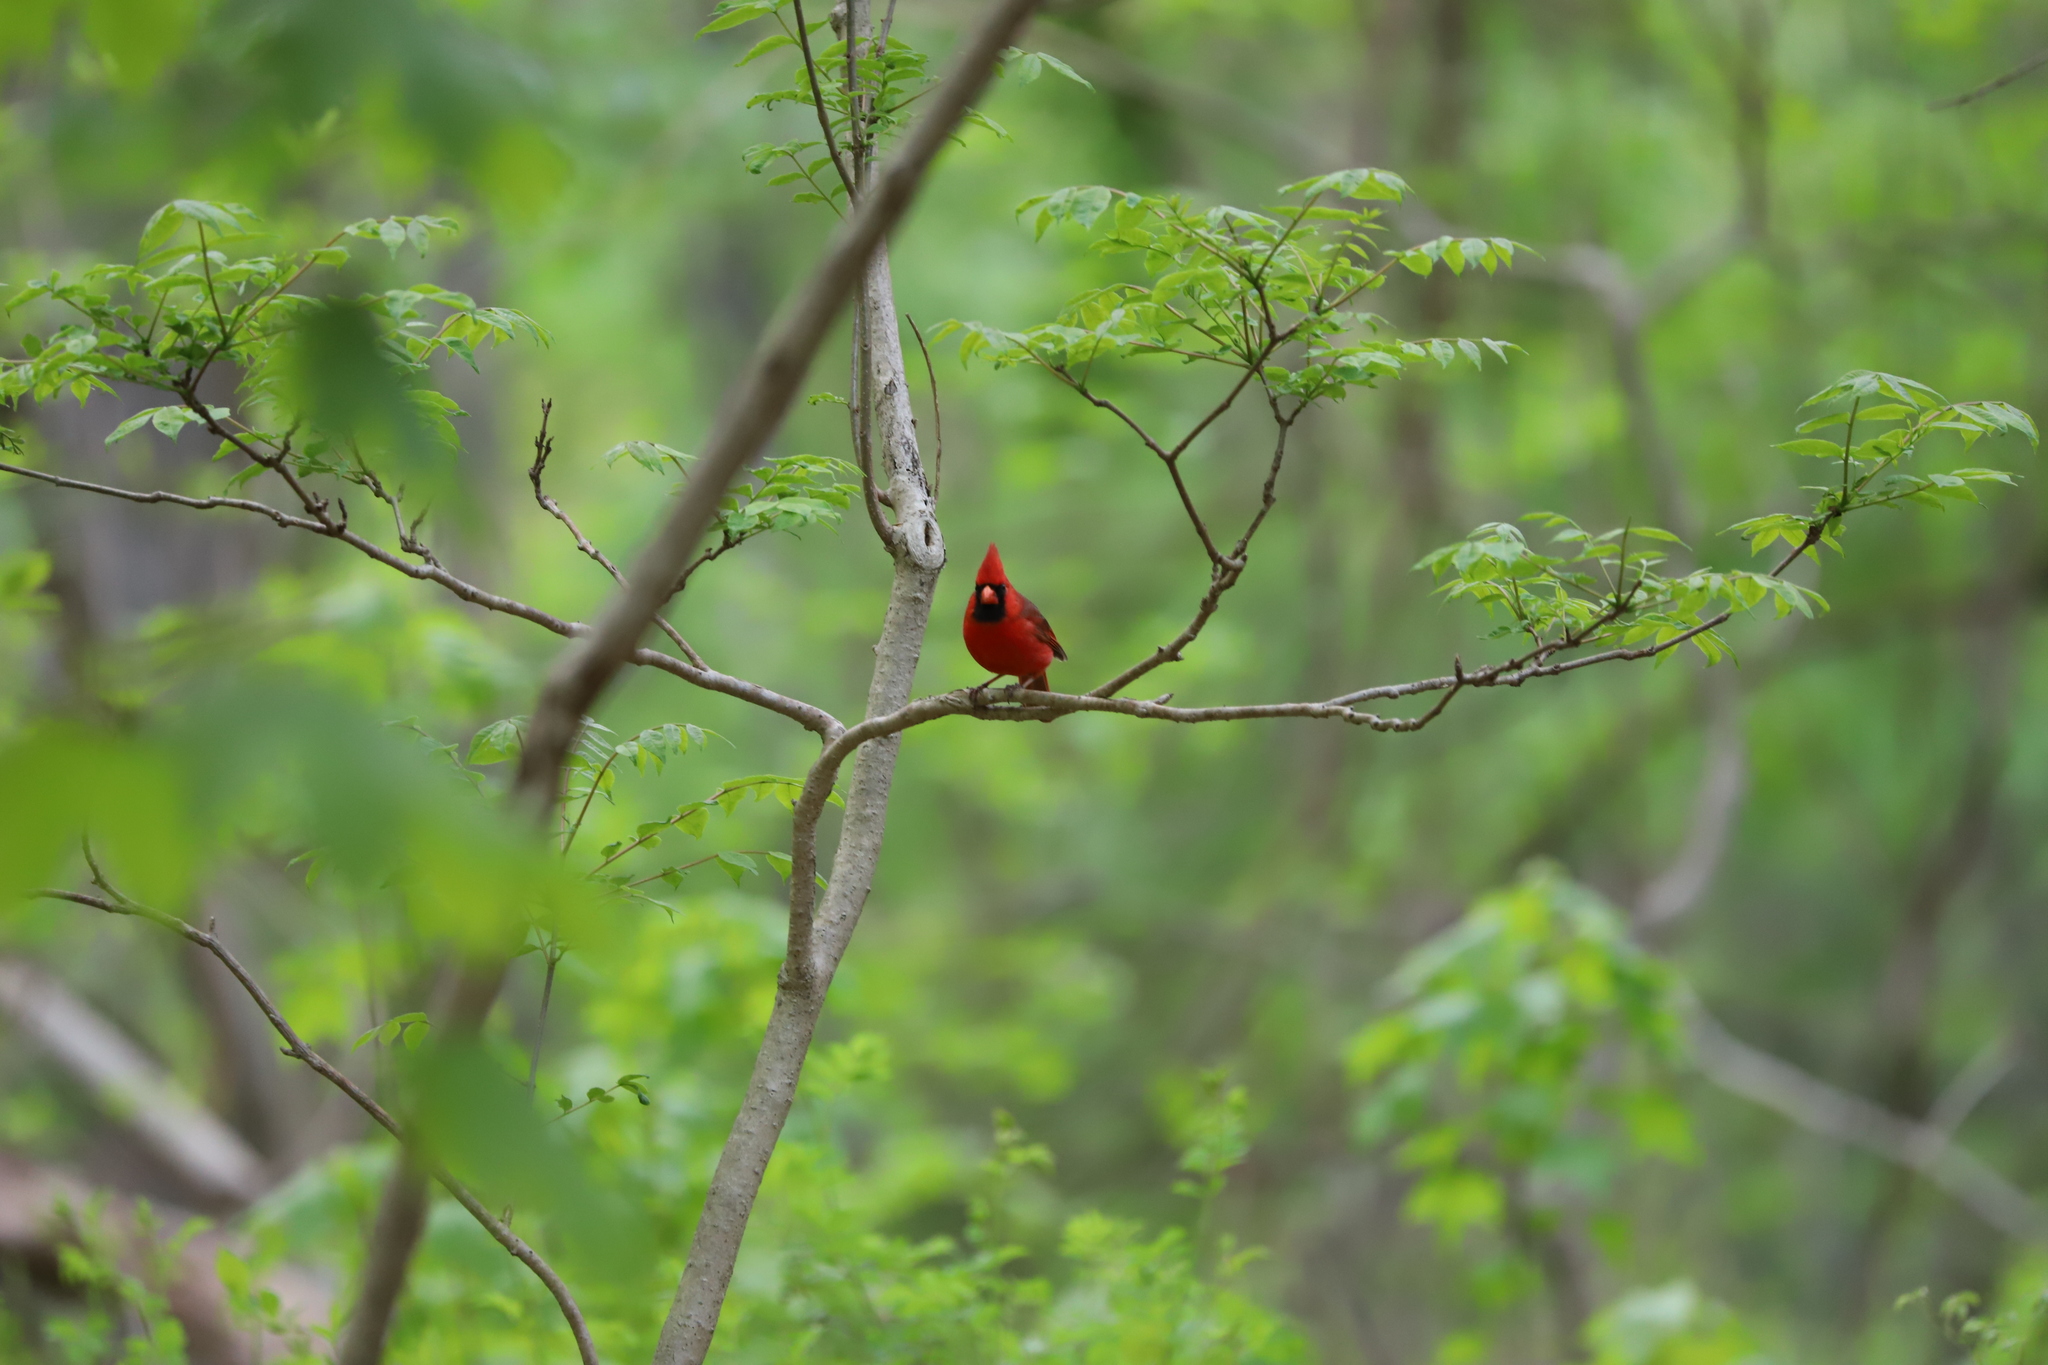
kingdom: Animalia
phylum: Chordata
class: Aves
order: Passeriformes
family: Cardinalidae
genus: Cardinalis
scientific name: Cardinalis cardinalis
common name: Northern cardinal
